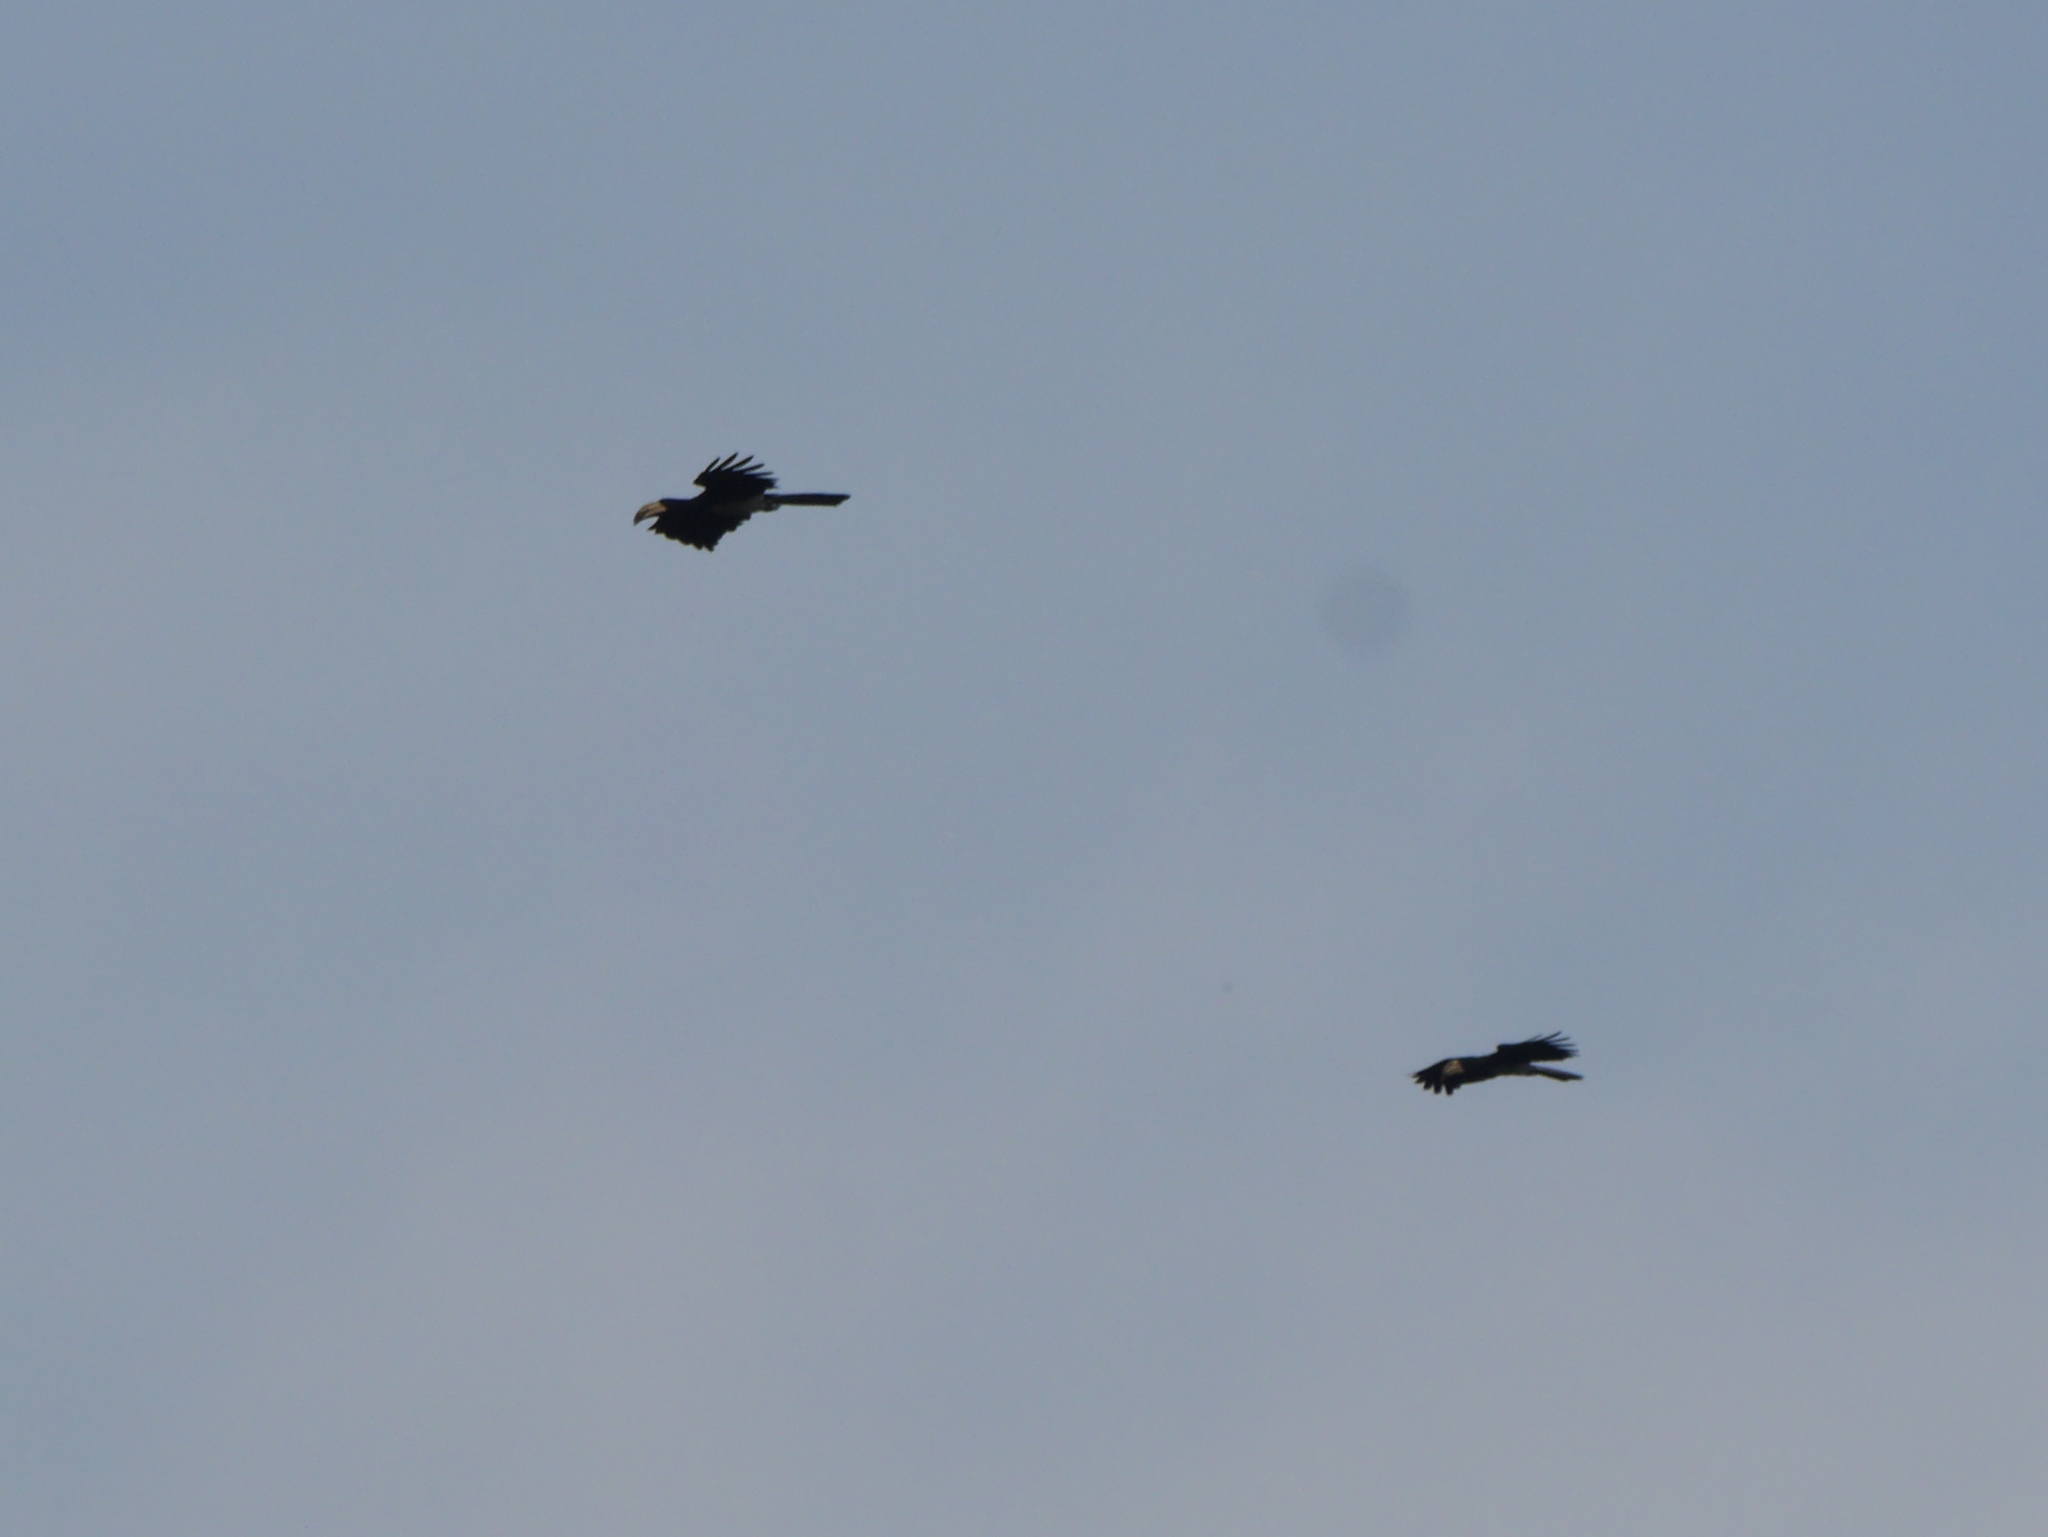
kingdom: Animalia
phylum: Chordata
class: Aves
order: Bucerotiformes
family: Bucerotidae
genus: Lophoceros
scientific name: Lophoceros fasciatus
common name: African pied hornbill
